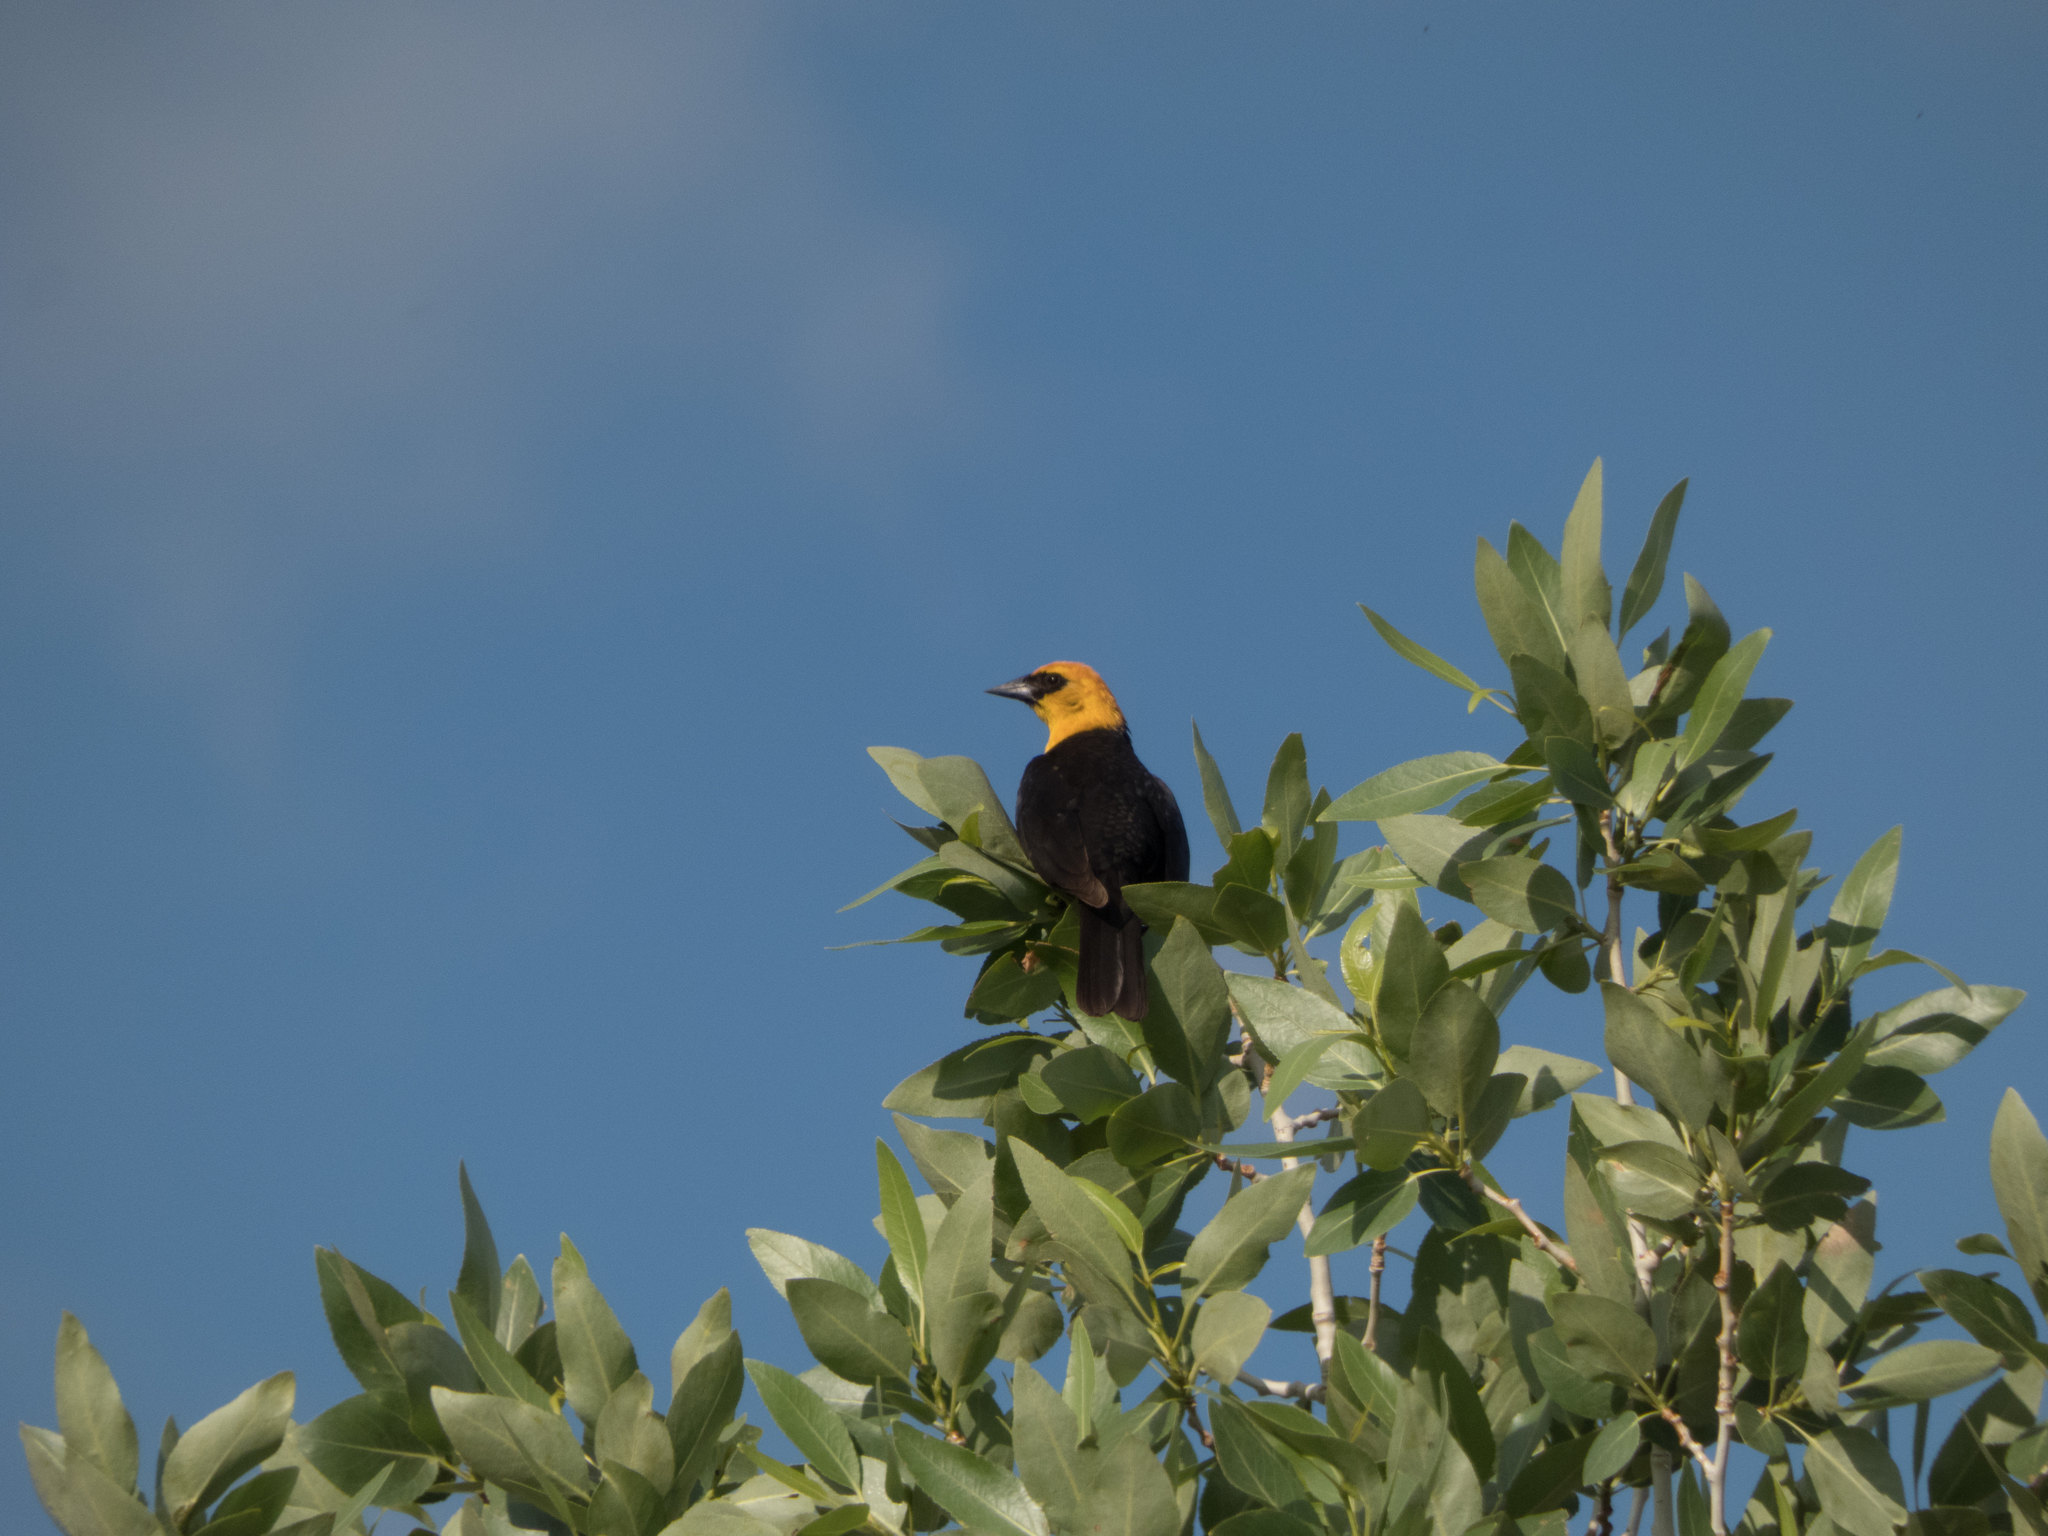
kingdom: Animalia
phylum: Chordata
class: Aves
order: Passeriformes
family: Icteridae
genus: Xanthocephalus
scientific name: Xanthocephalus xanthocephalus
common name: Yellow-headed blackbird
